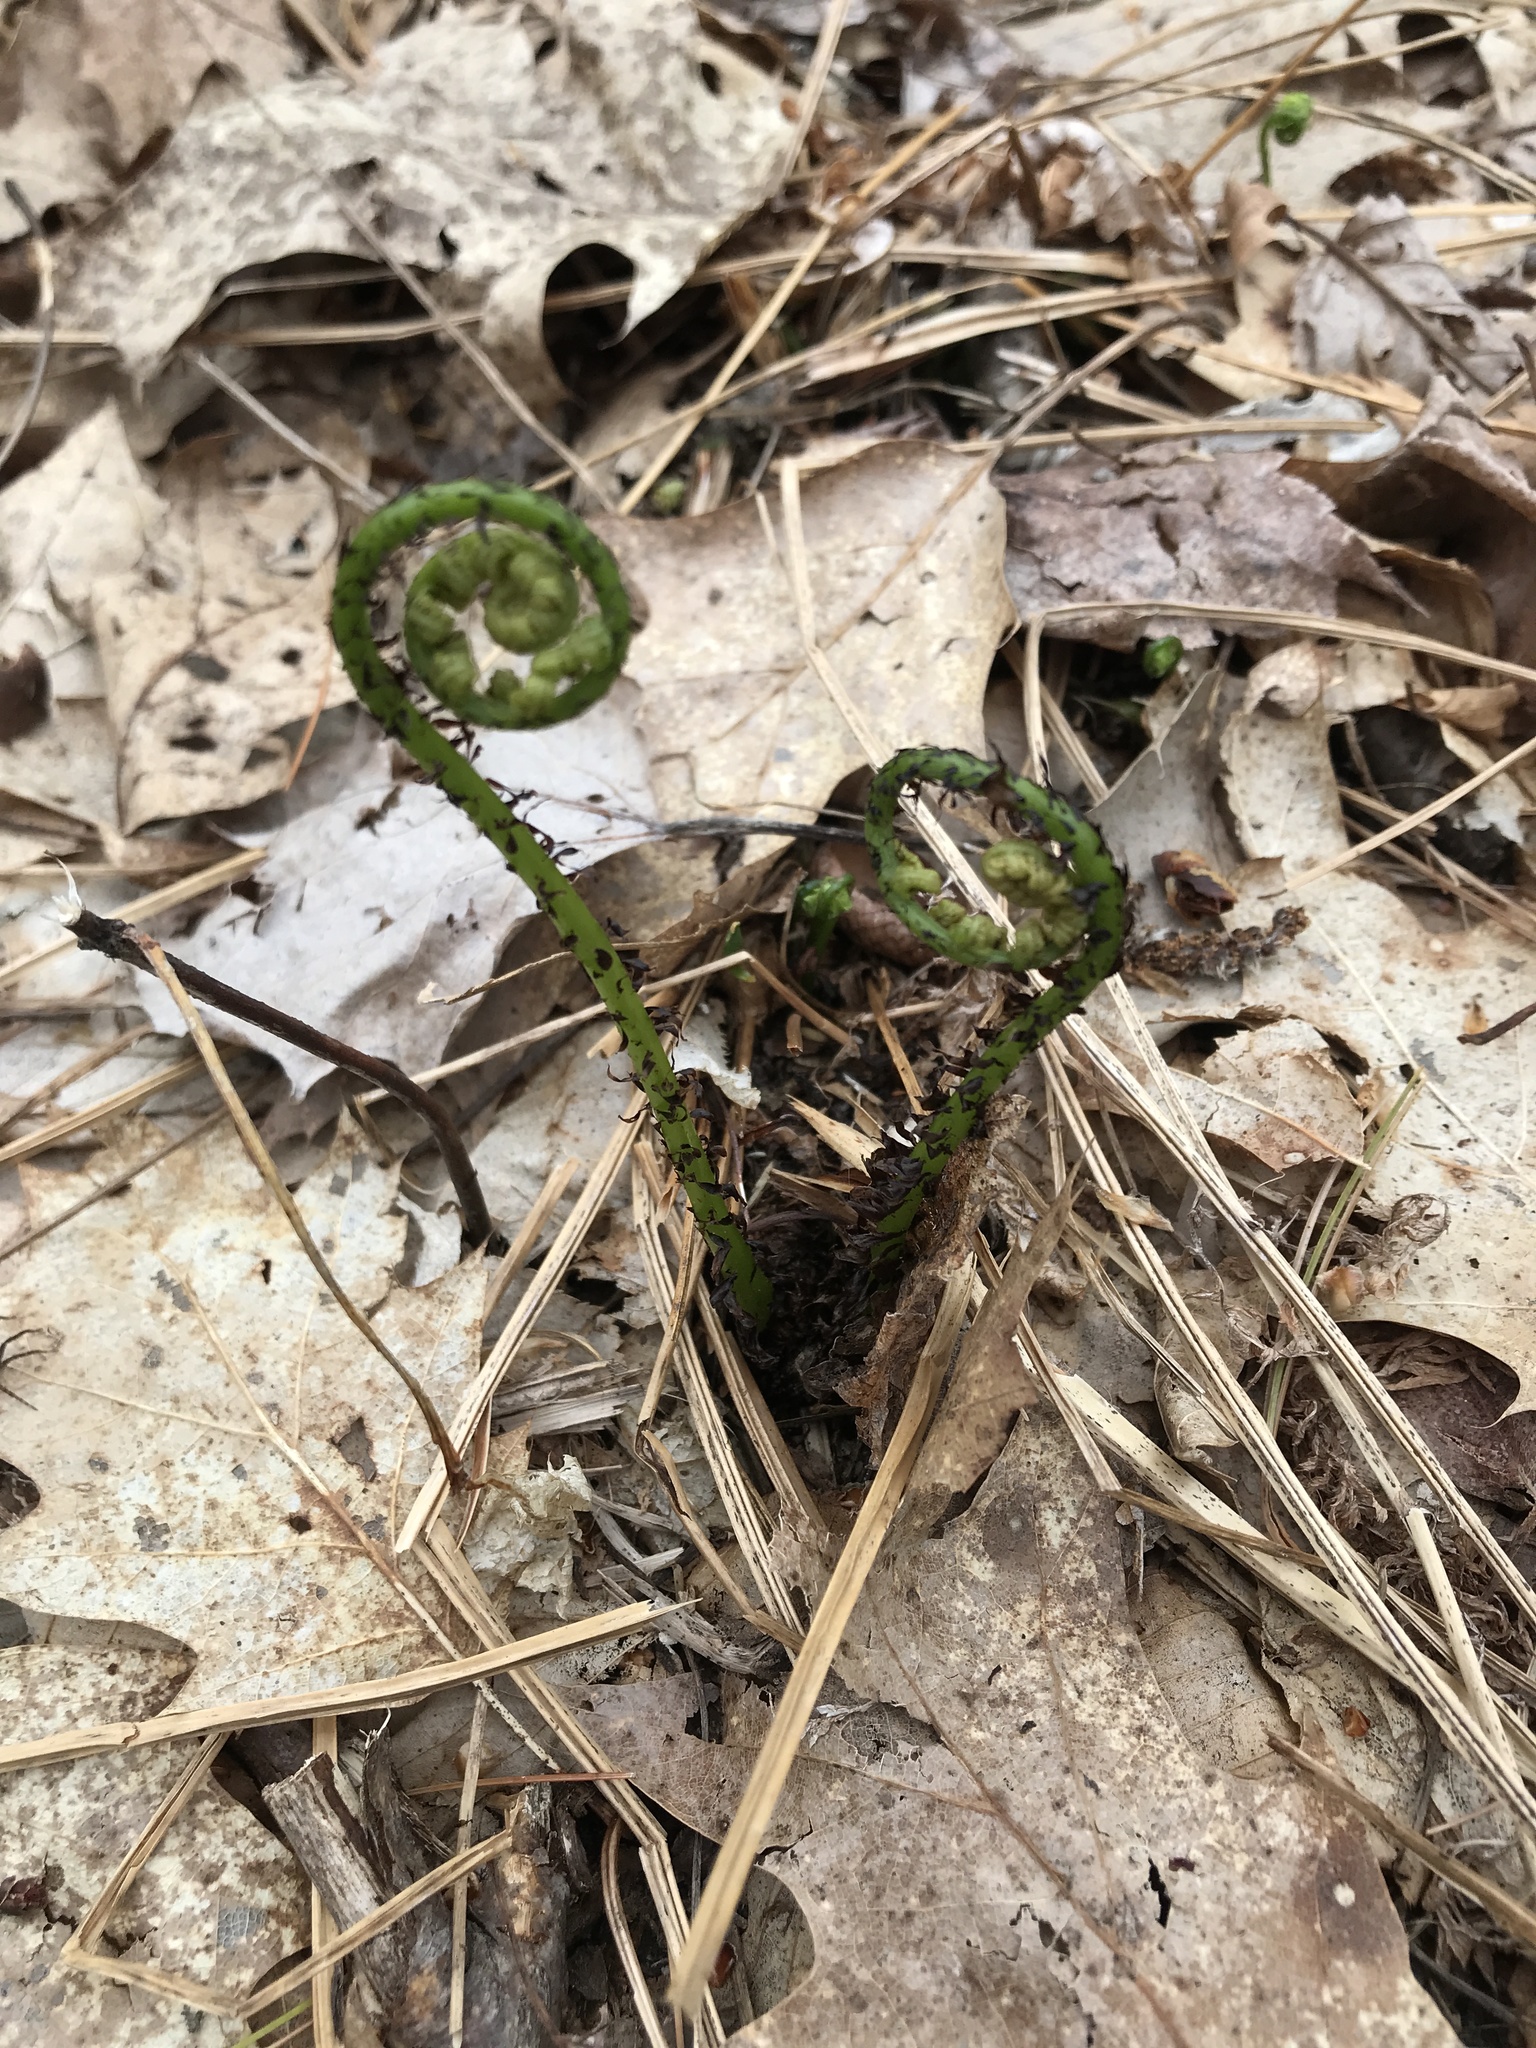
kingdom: Plantae
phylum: Tracheophyta
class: Polypodiopsida
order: Polypodiales
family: Athyriaceae
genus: Athyrium
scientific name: Athyrium angustum
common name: Northern lady fern
